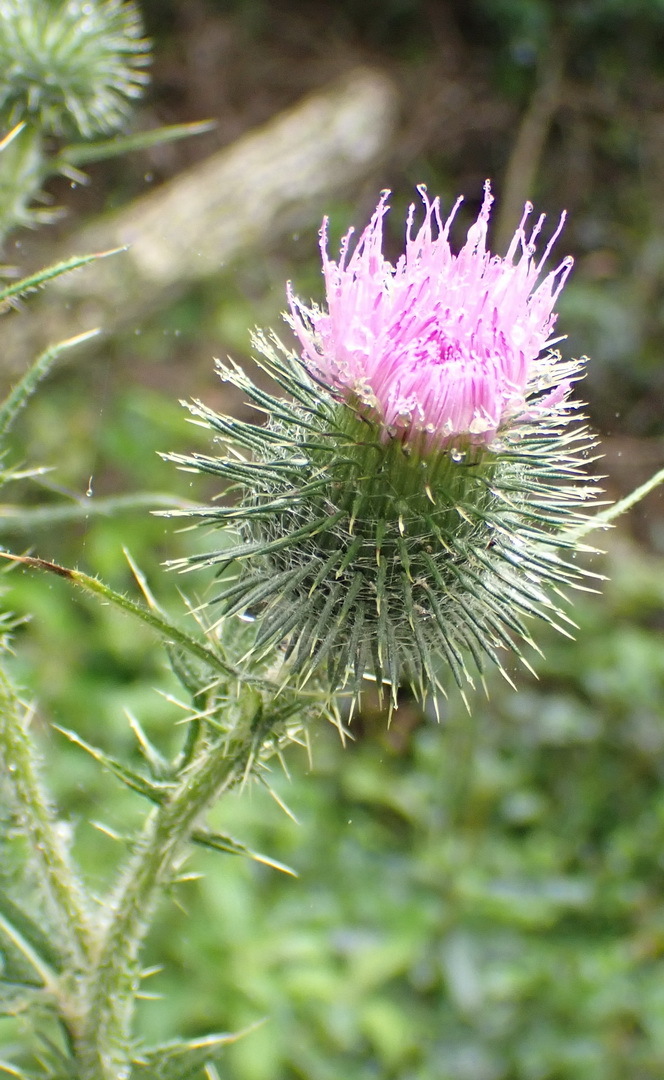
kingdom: Plantae
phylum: Tracheophyta
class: Magnoliopsida
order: Asterales
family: Asteraceae
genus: Cirsium
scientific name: Cirsium vulgare
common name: Bull thistle
